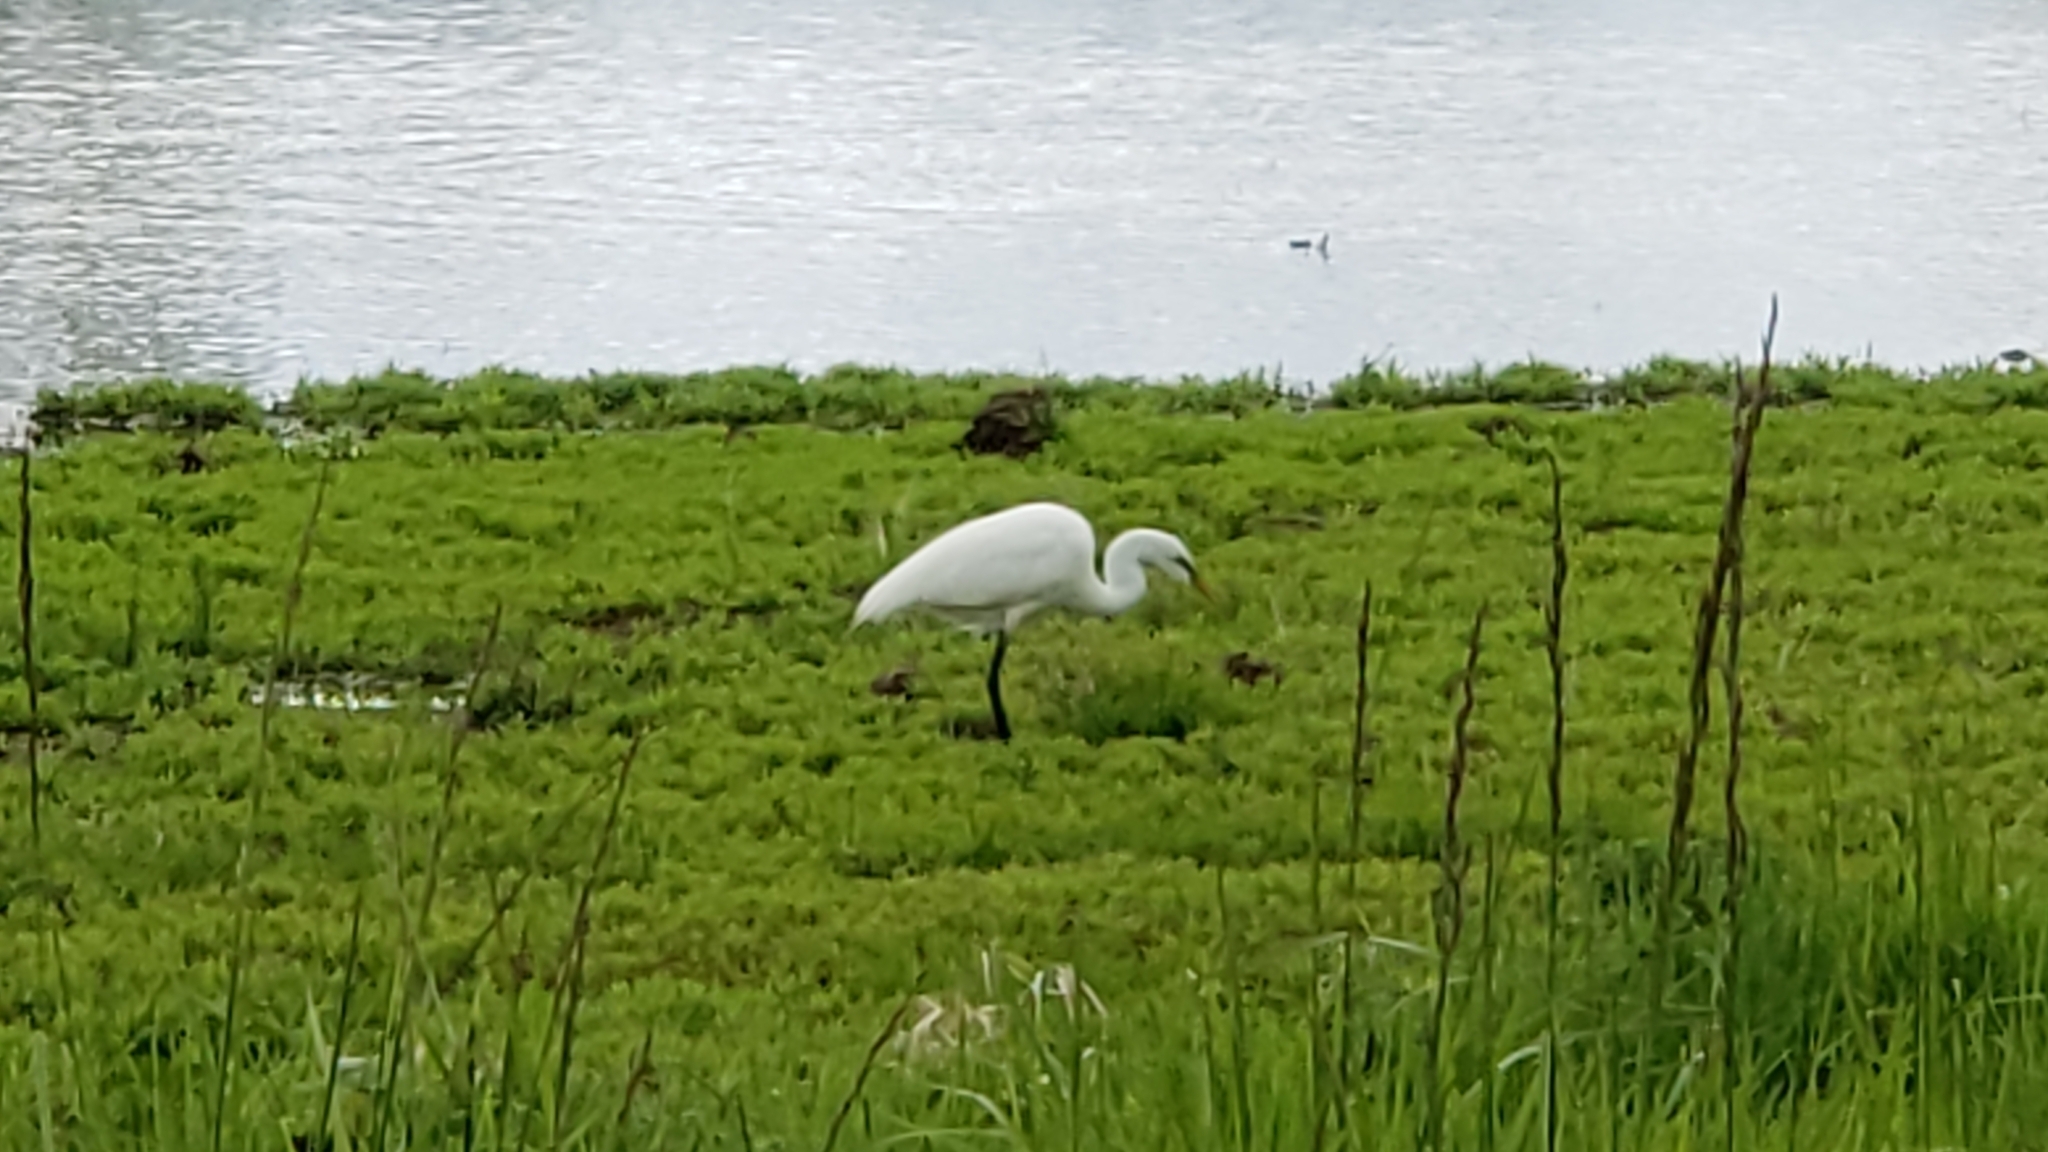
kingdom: Animalia
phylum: Chordata
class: Aves
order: Pelecaniformes
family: Ardeidae
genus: Ardea
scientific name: Ardea alba
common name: Great egret
